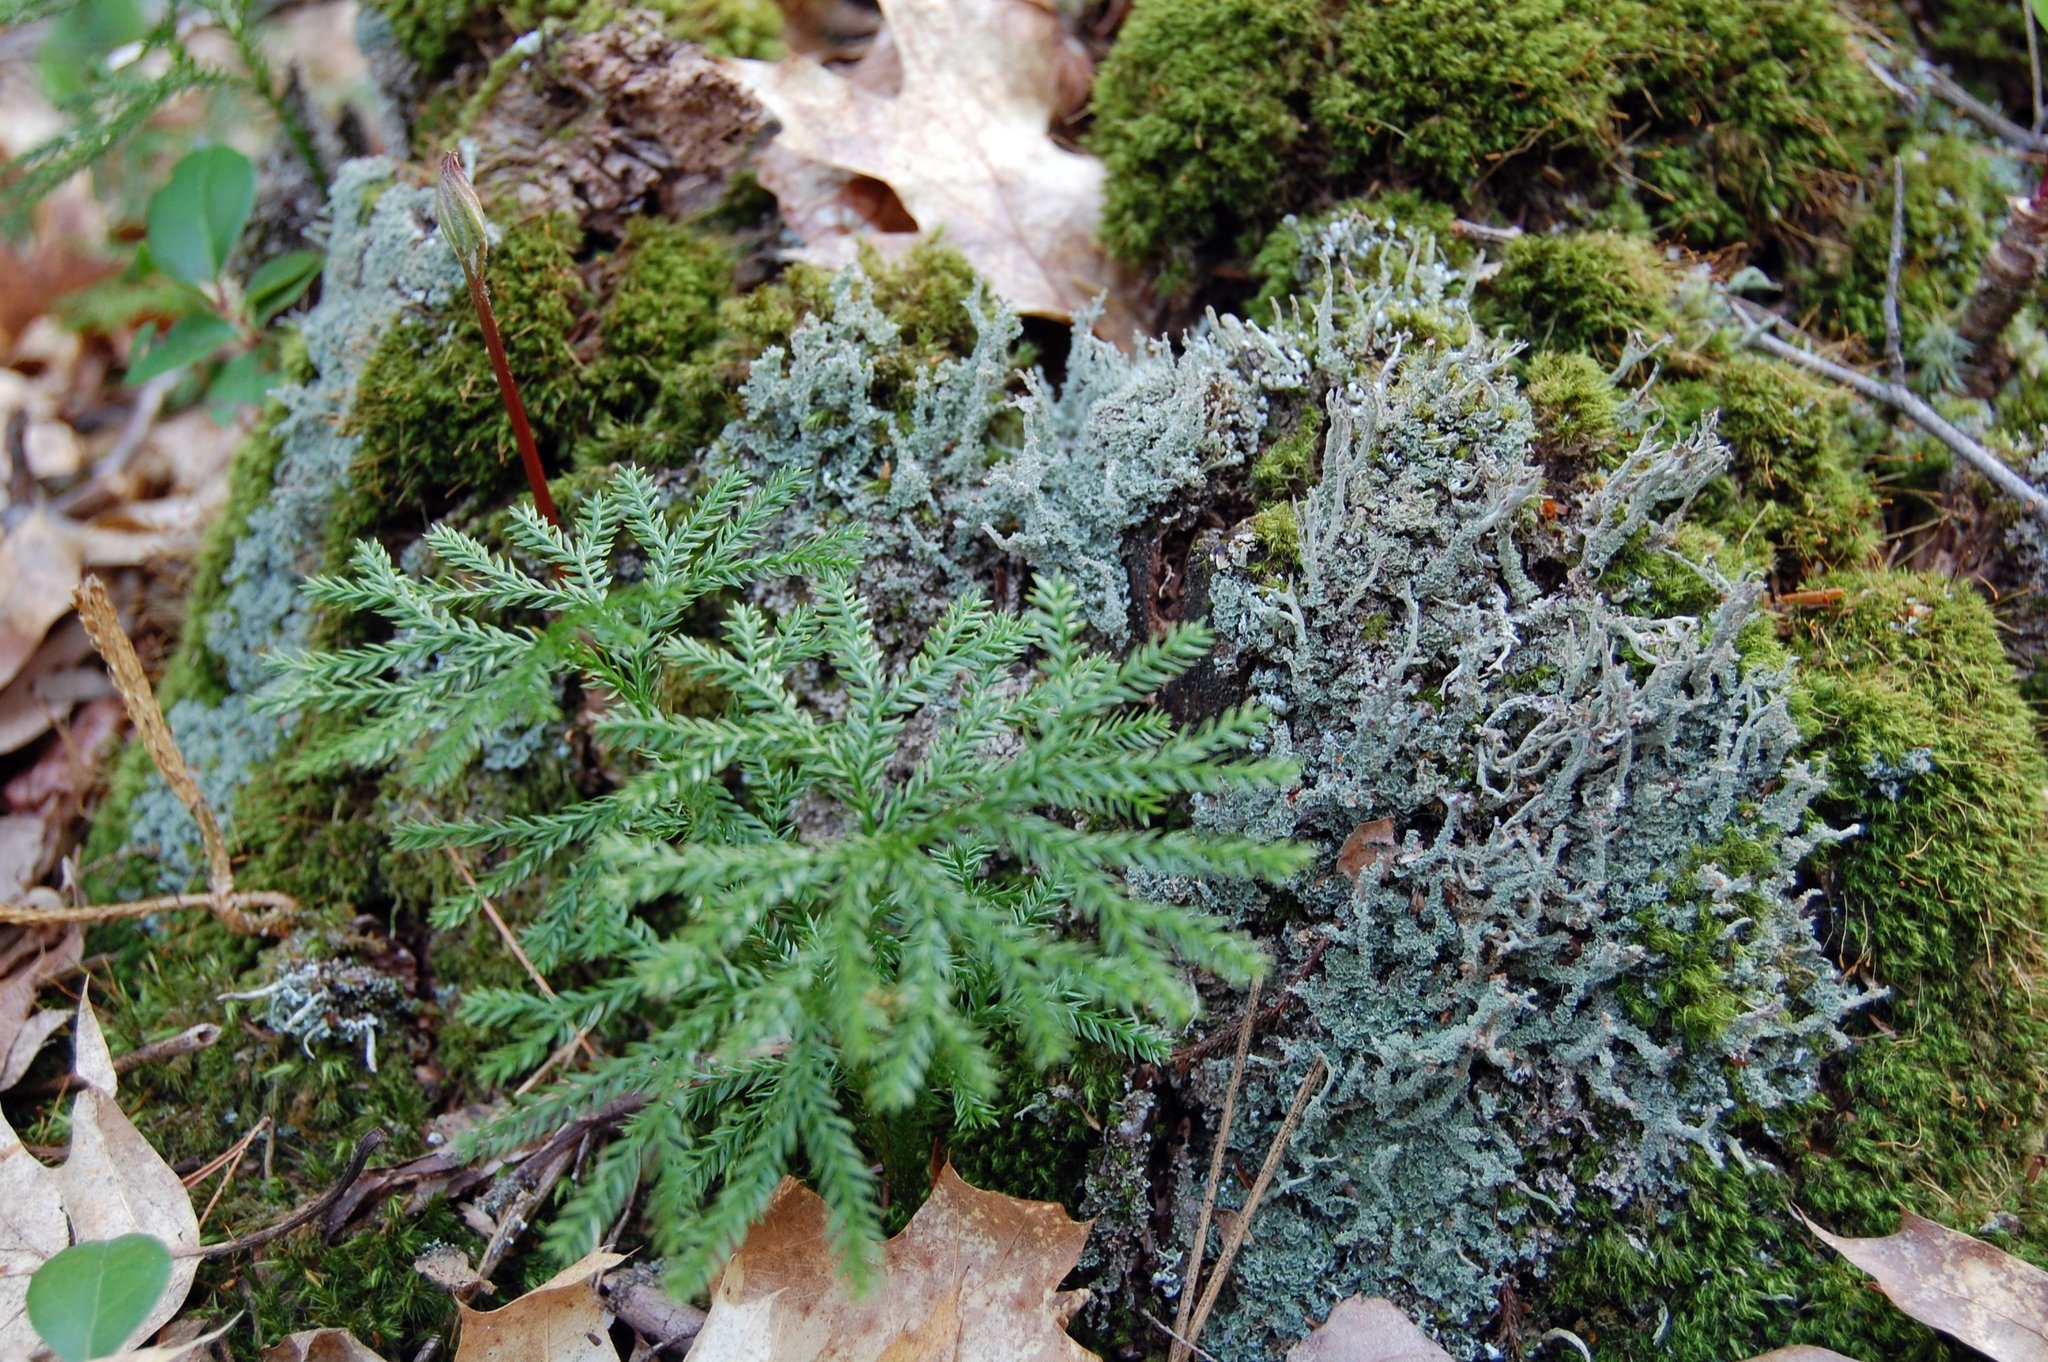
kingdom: Plantae
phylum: Tracheophyta
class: Lycopodiopsida
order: Lycopodiales
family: Lycopodiaceae
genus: Dendrolycopodium
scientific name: Dendrolycopodium dendroideum
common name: Northern tree-clubmoss
